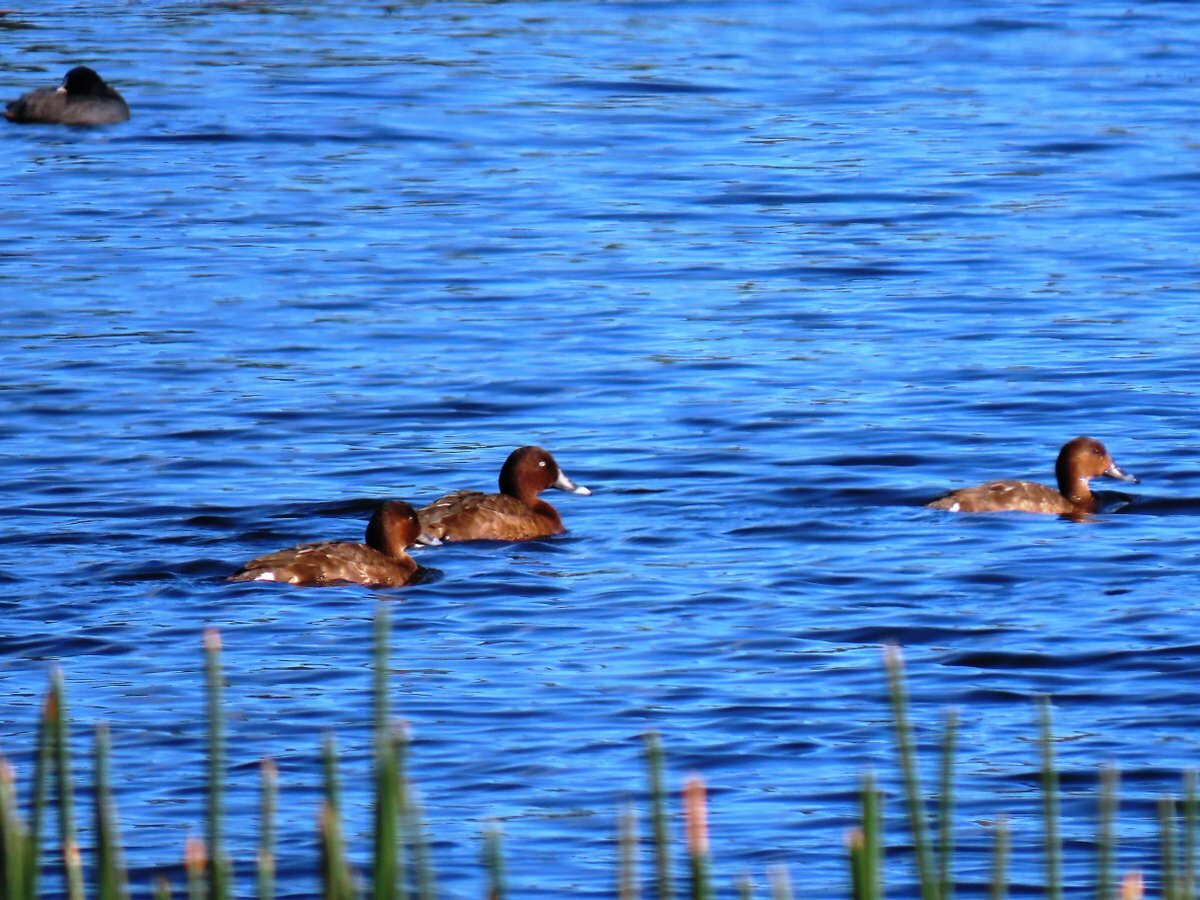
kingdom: Animalia
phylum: Chordata
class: Aves
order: Anseriformes
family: Anatidae
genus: Aythya
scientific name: Aythya australis
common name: Hardhead
